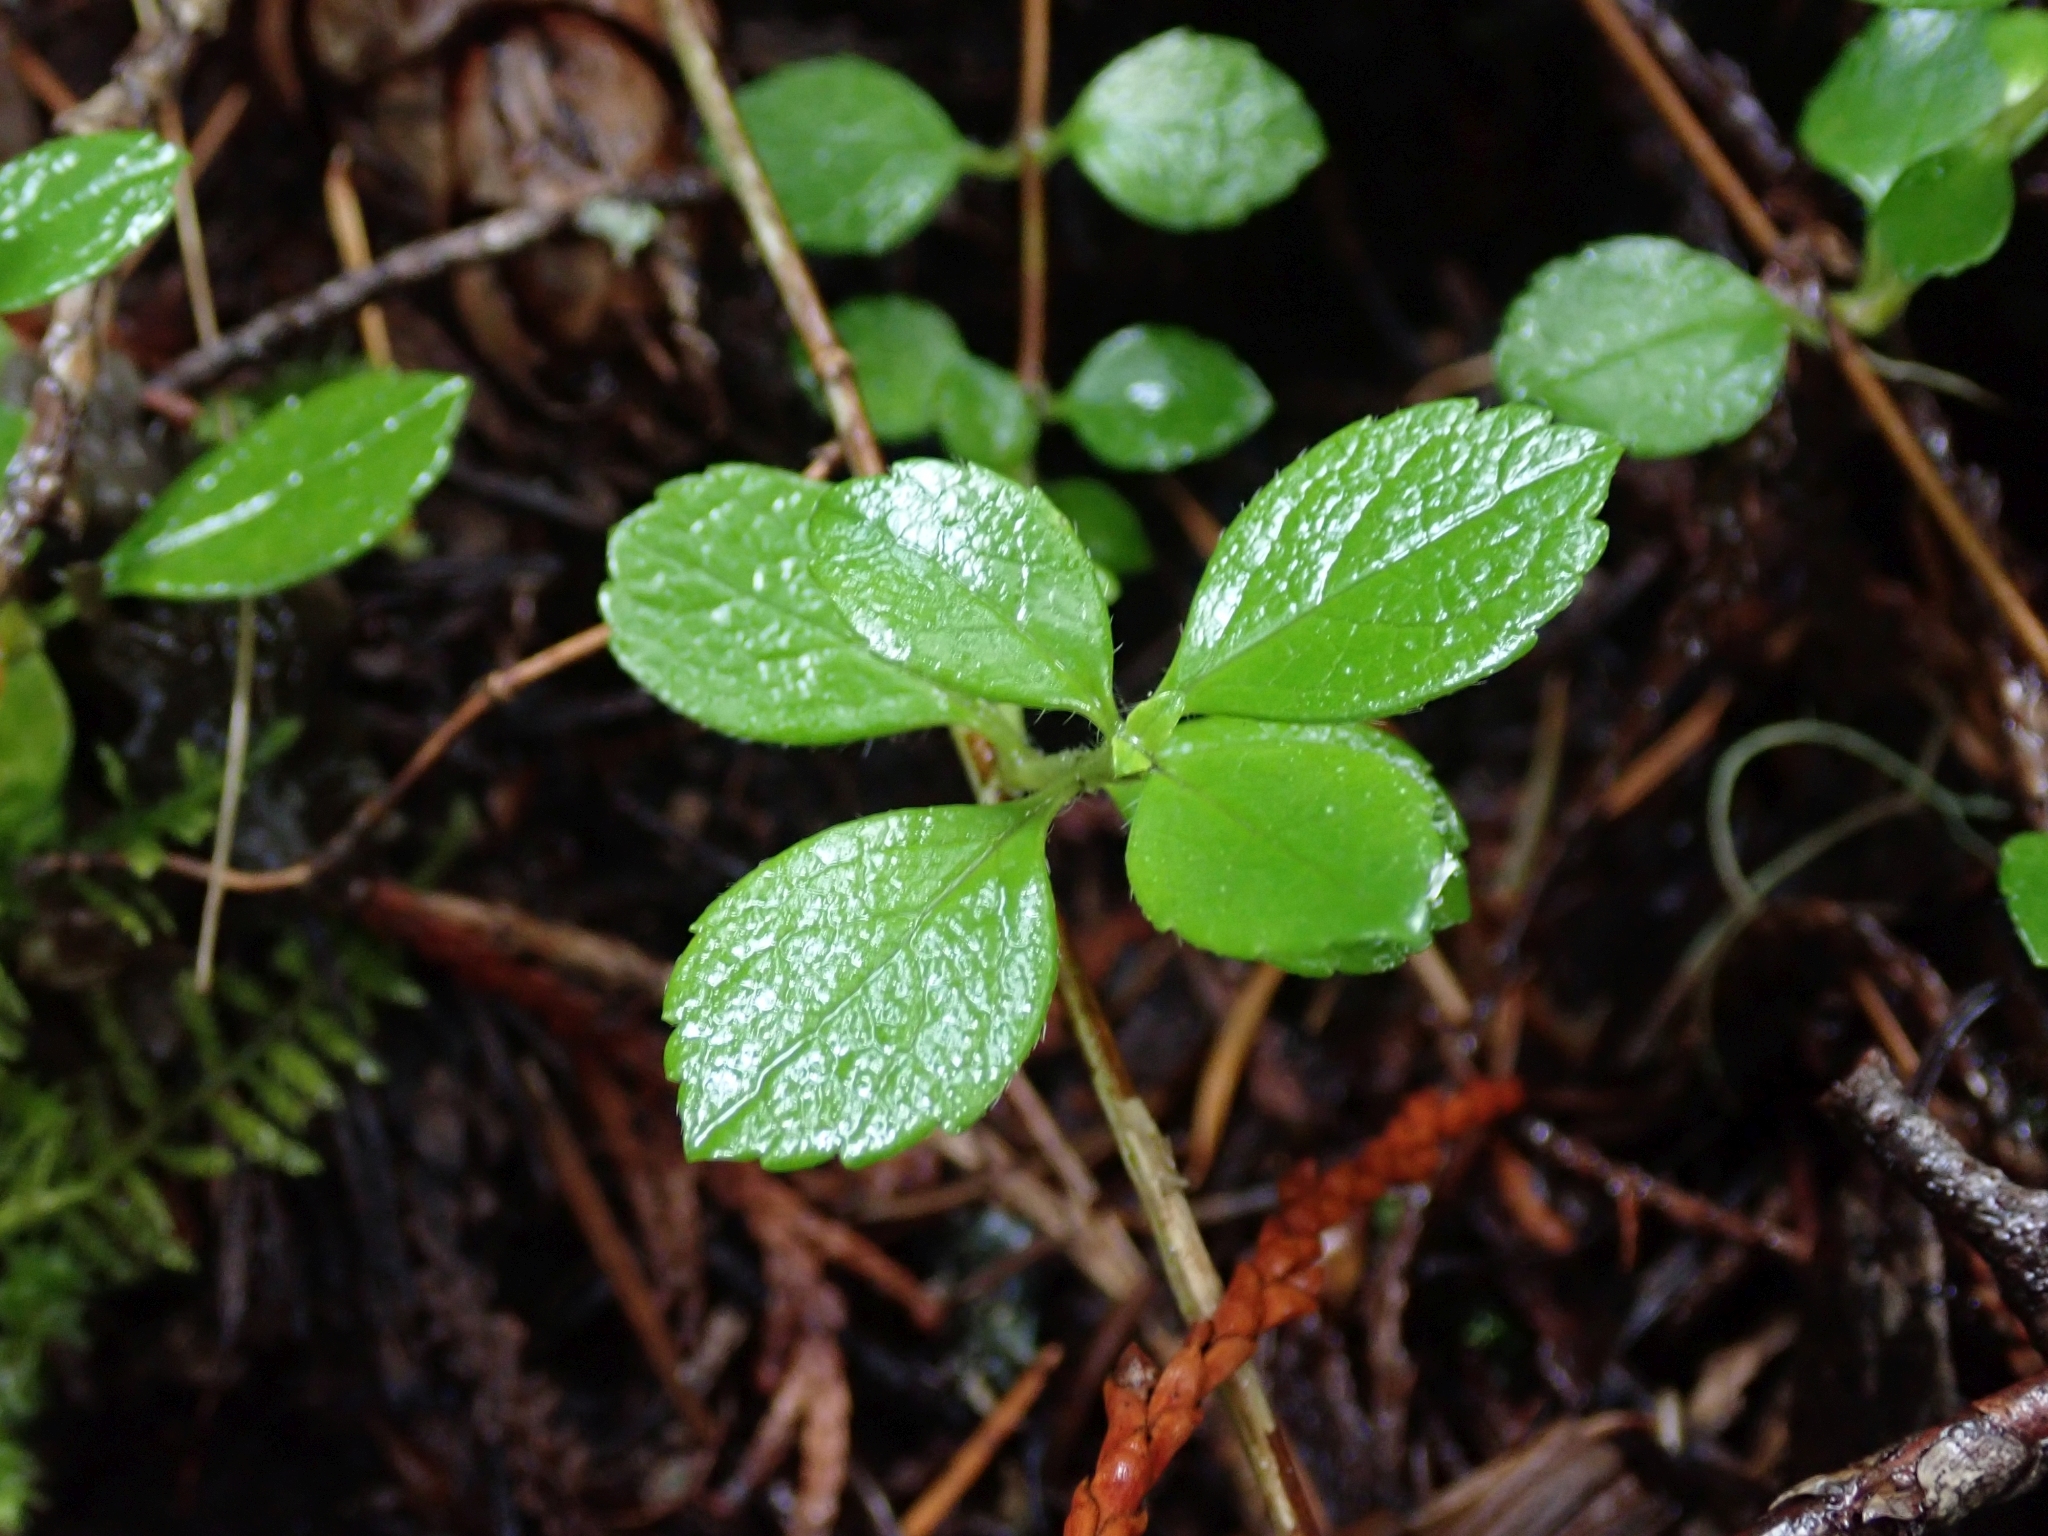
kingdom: Plantae
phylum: Tracheophyta
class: Magnoliopsida
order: Dipsacales
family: Caprifoliaceae
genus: Linnaea
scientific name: Linnaea borealis
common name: Twinflower
